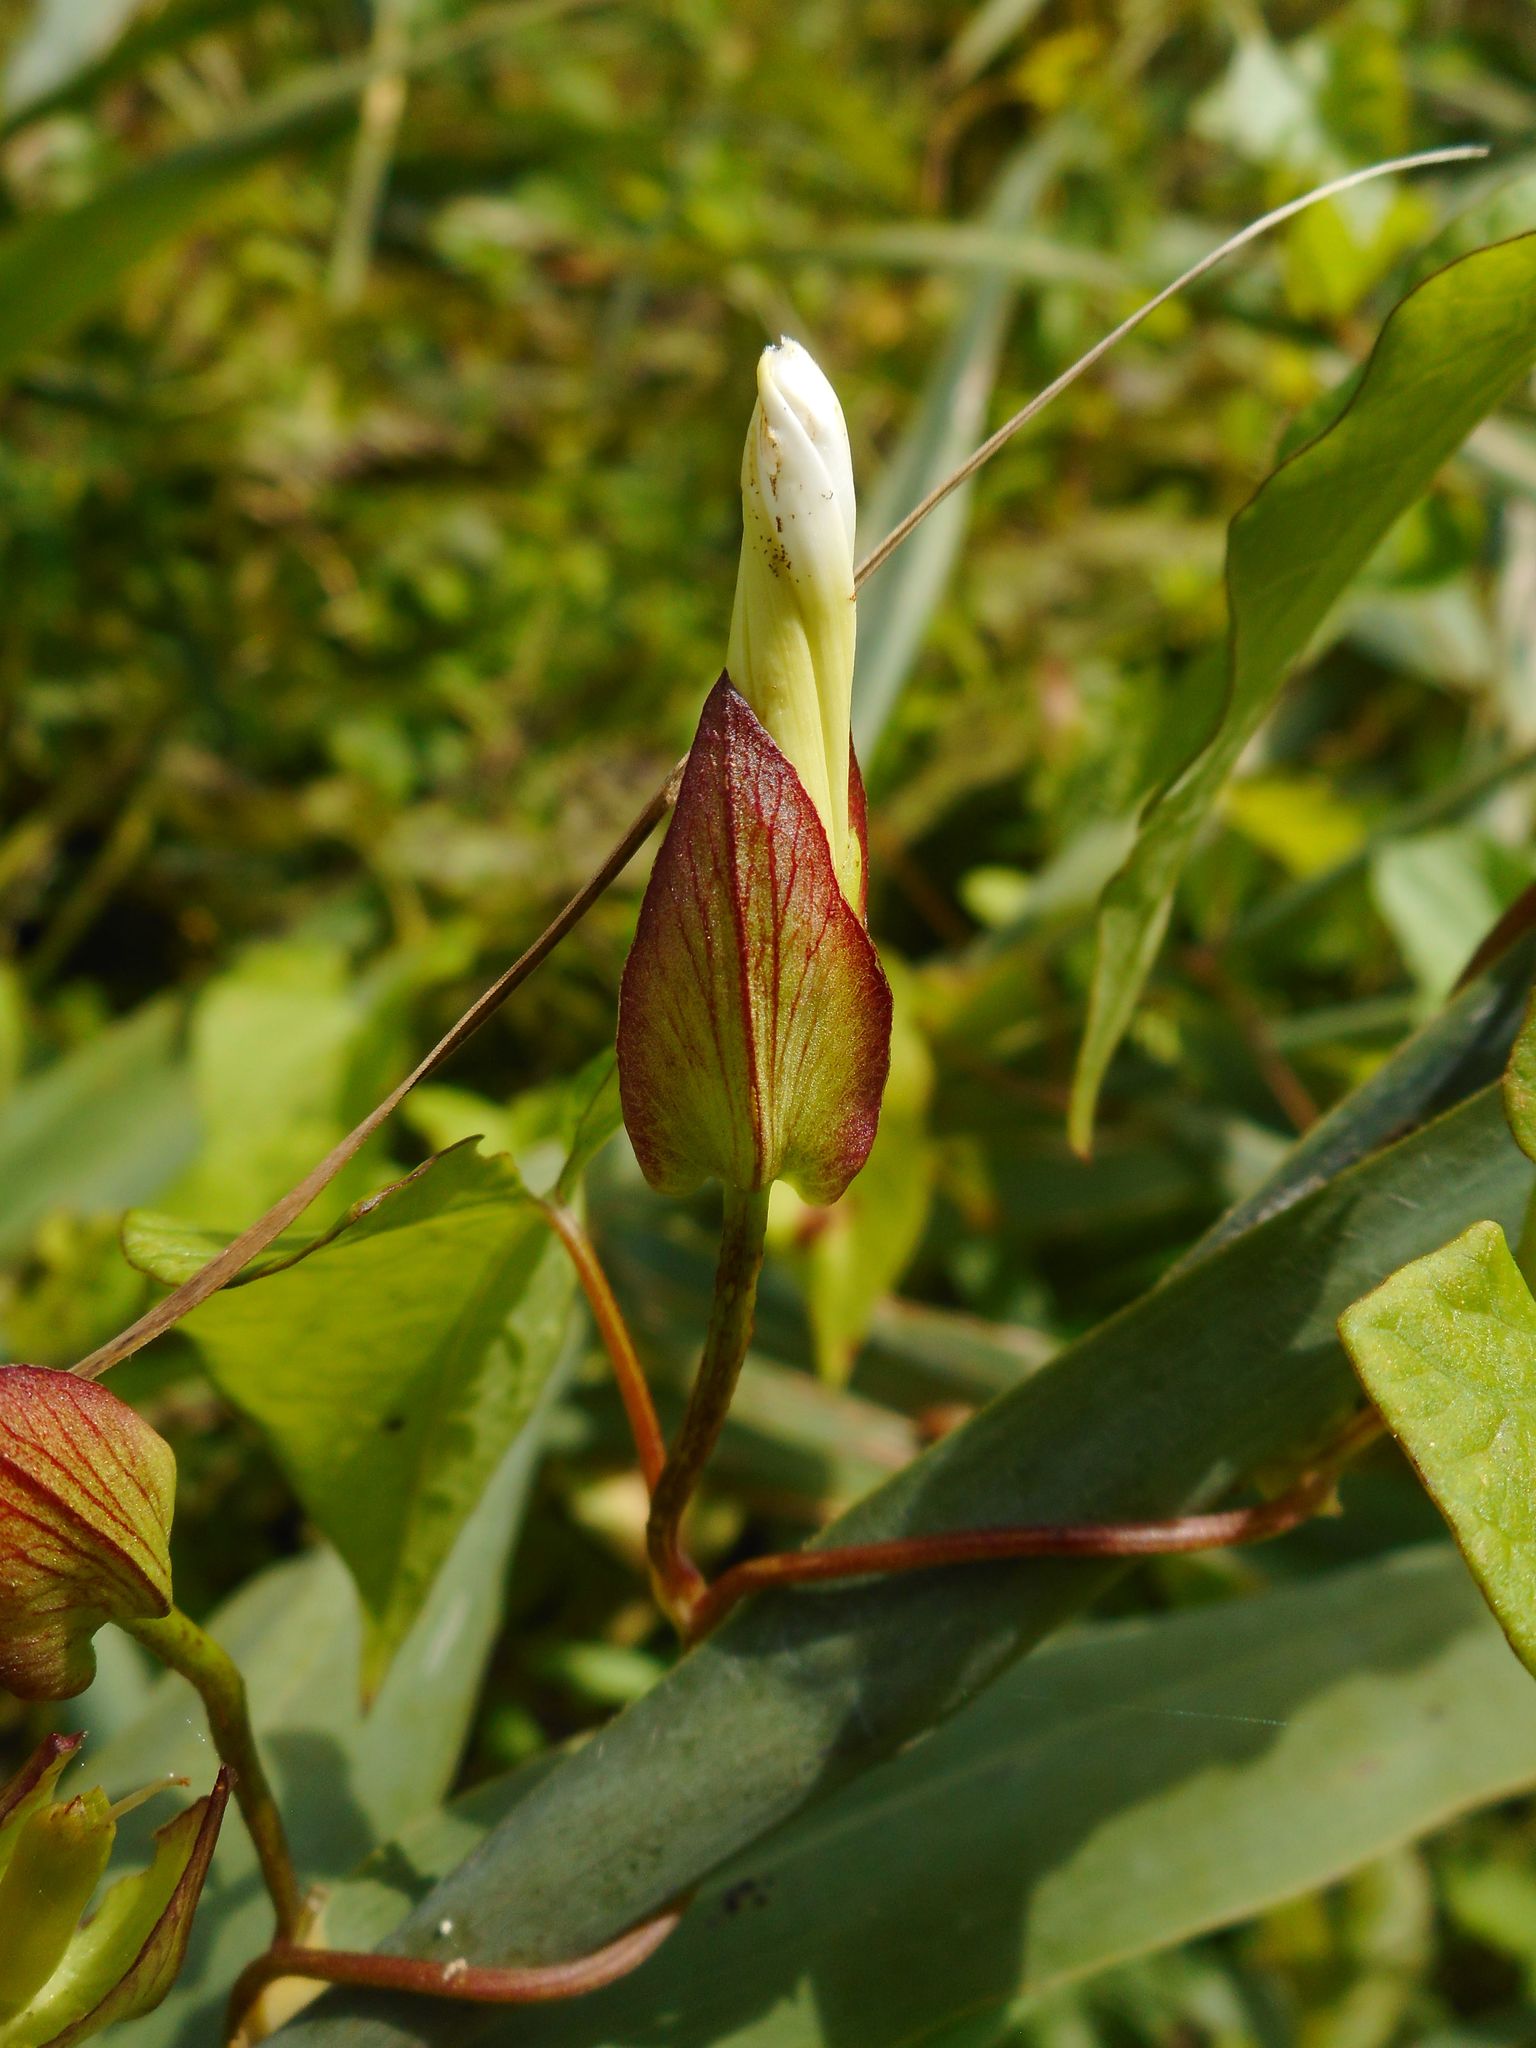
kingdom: Plantae
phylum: Tracheophyta
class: Magnoliopsida
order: Solanales
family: Convolvulaceae
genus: Calystegia
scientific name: Calystegia sepium
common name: Hedge bindweed
